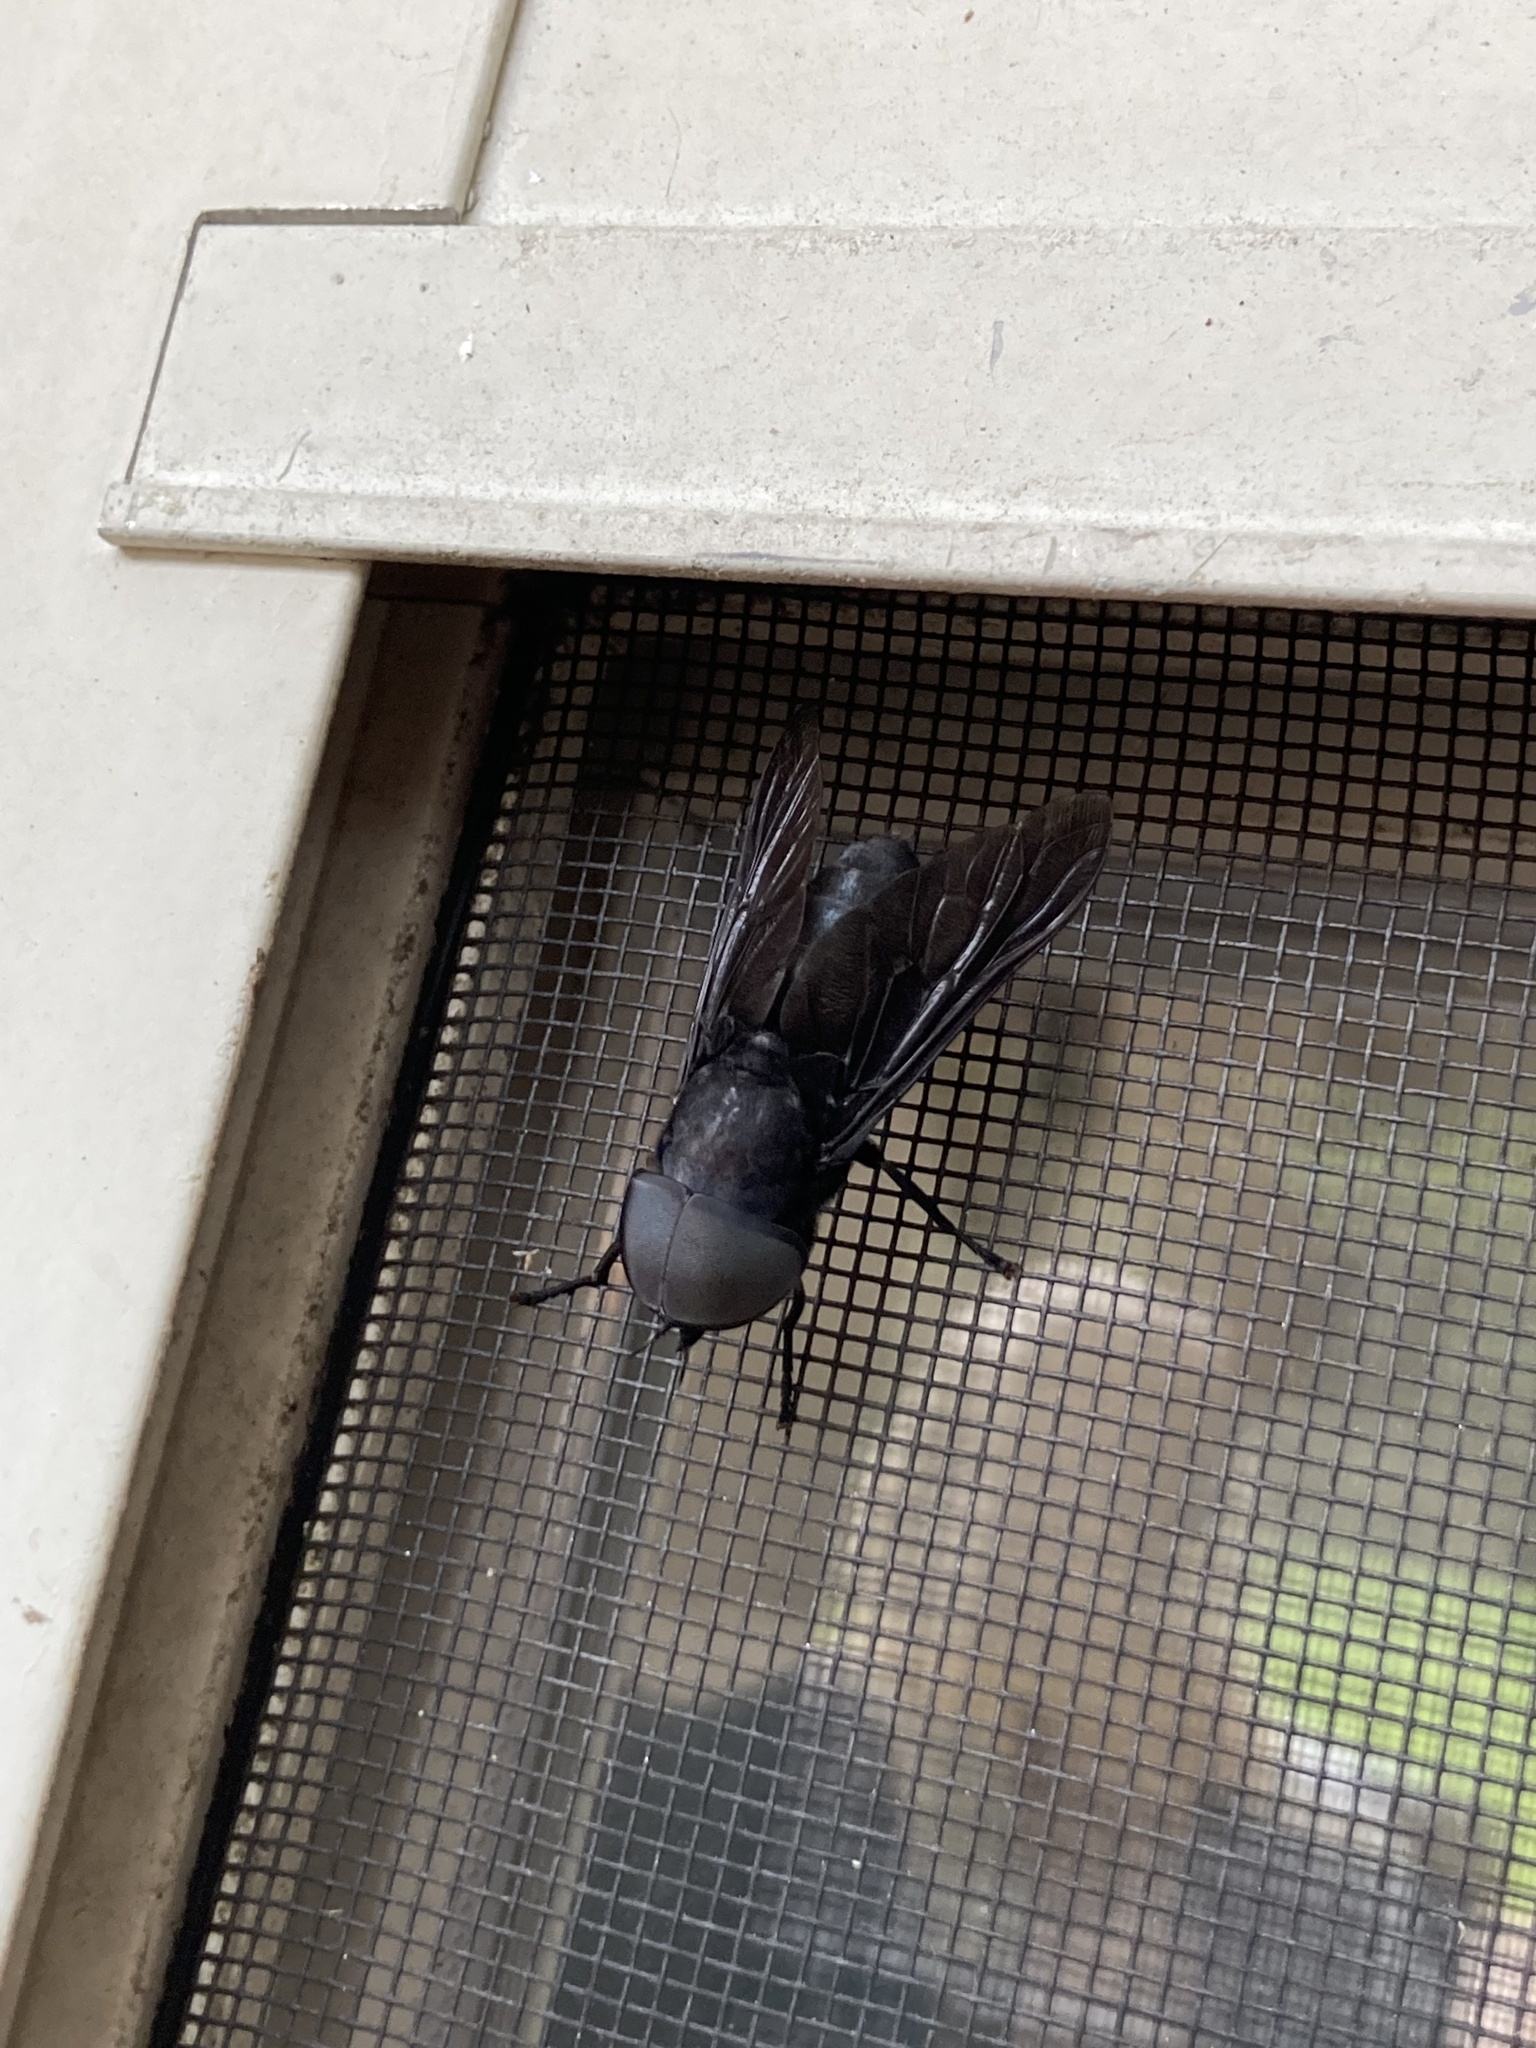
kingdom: Animalia
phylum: Arthropoda
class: Insecta
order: Diptera
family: Tabanidae
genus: Tabanus
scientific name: Tabanus atratus
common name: Black horse fly
